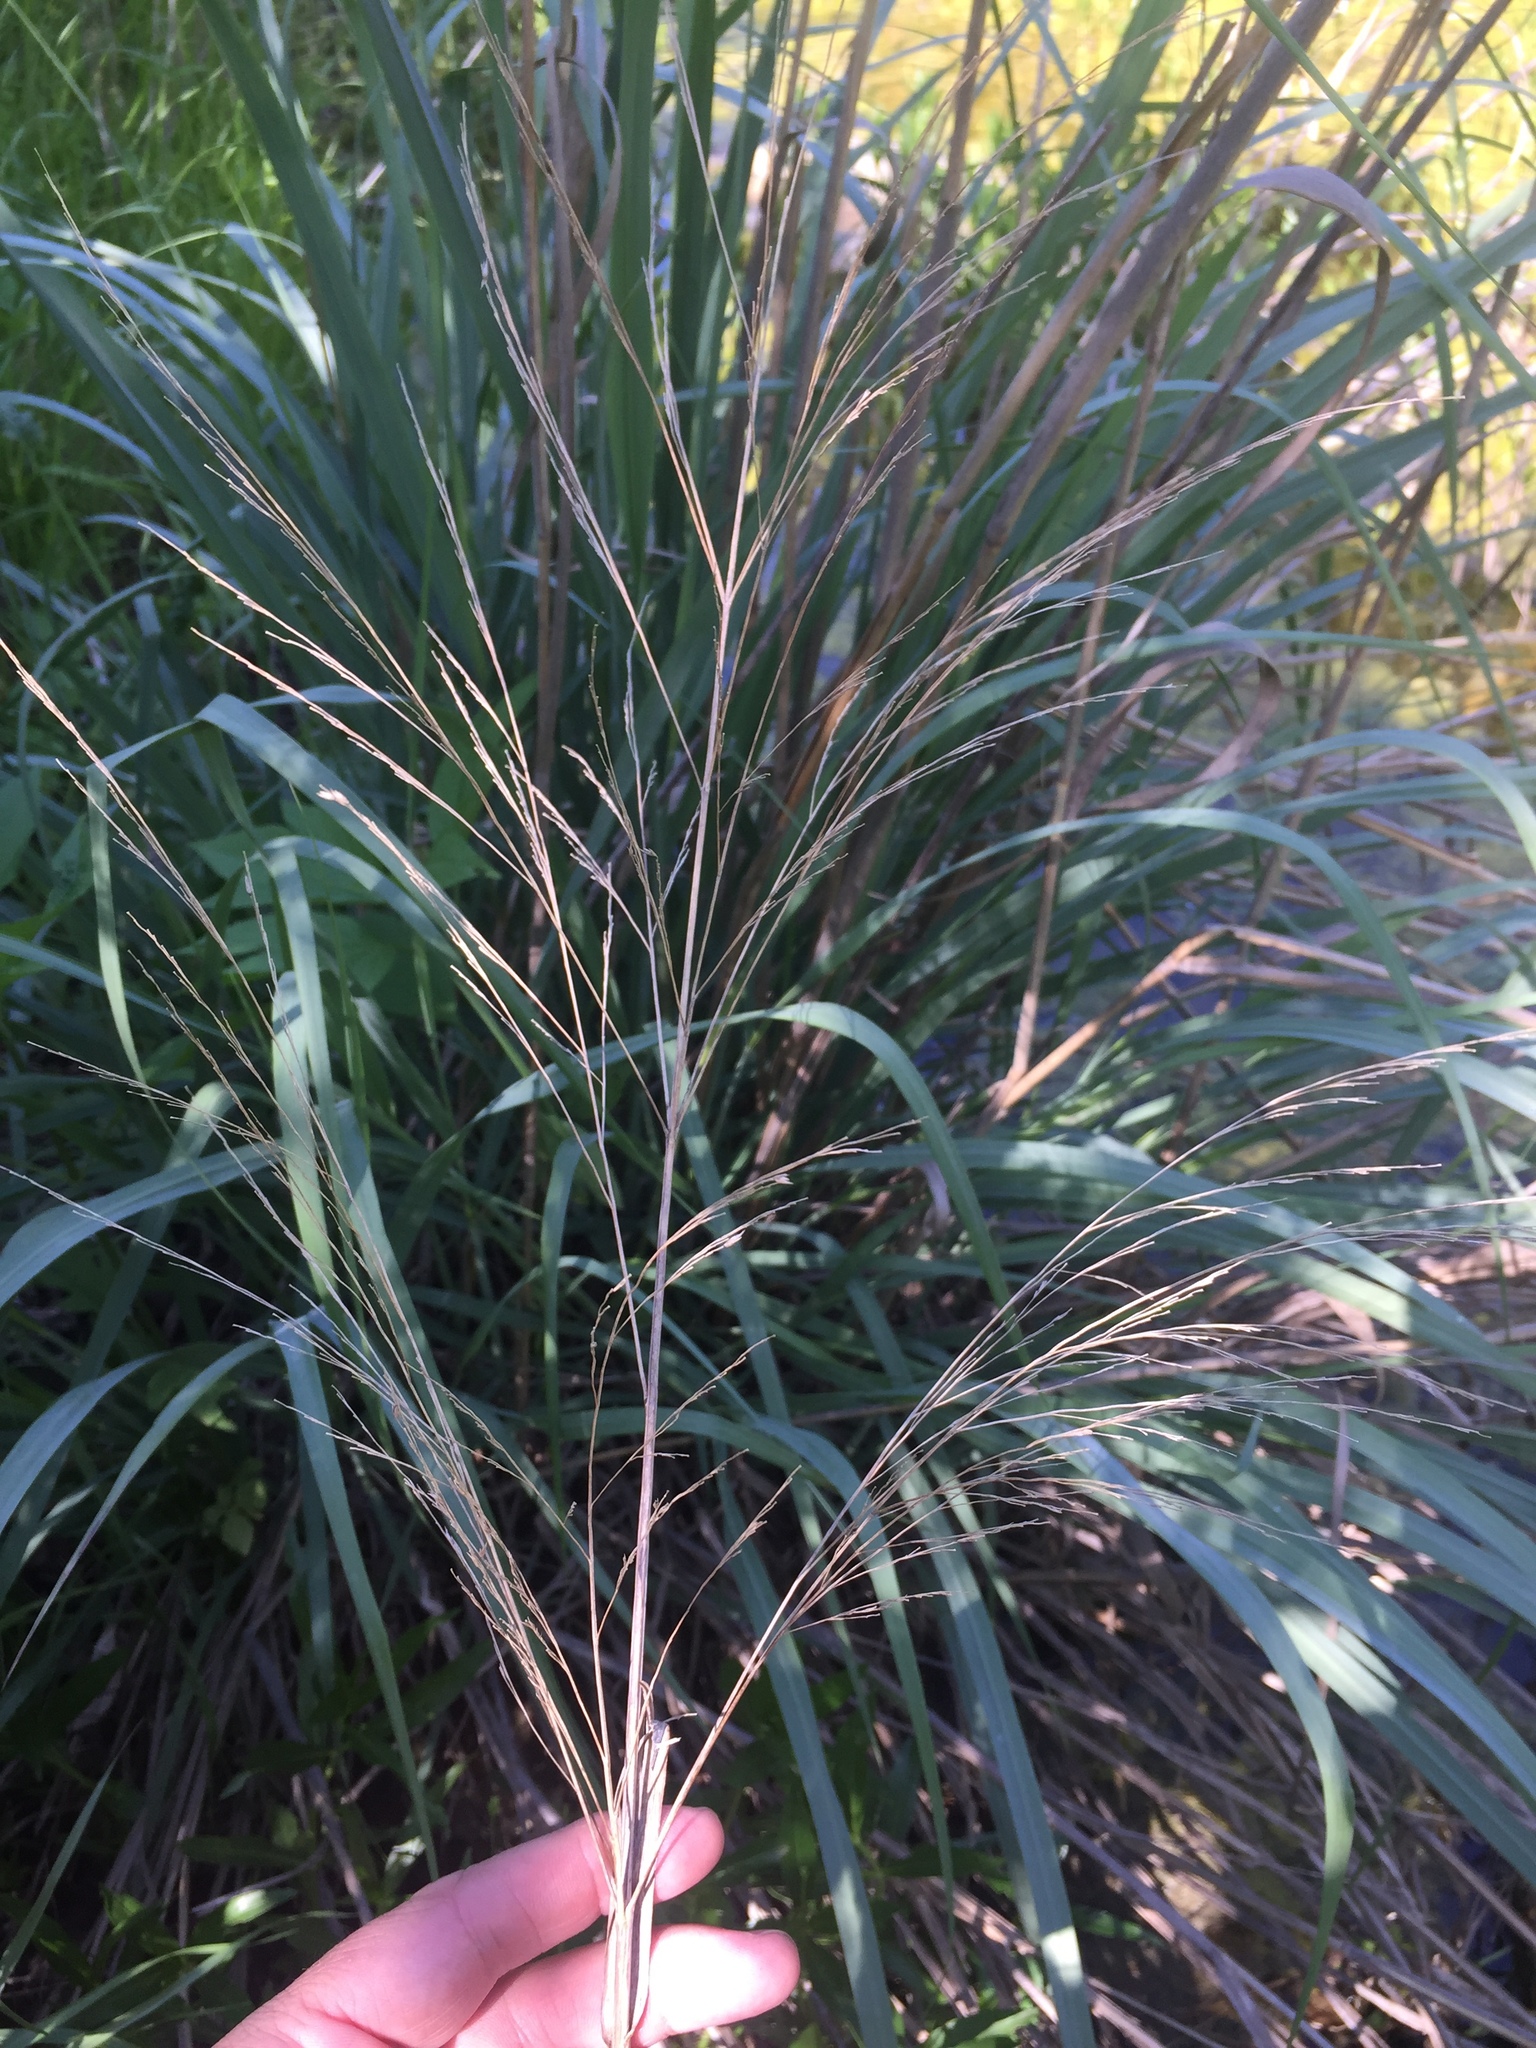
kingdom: Plantae
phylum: Tracheophyta
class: Liliopsida
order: Poales
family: Poaceae
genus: Panicum
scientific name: Panicum virgatum
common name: Switchgrass
